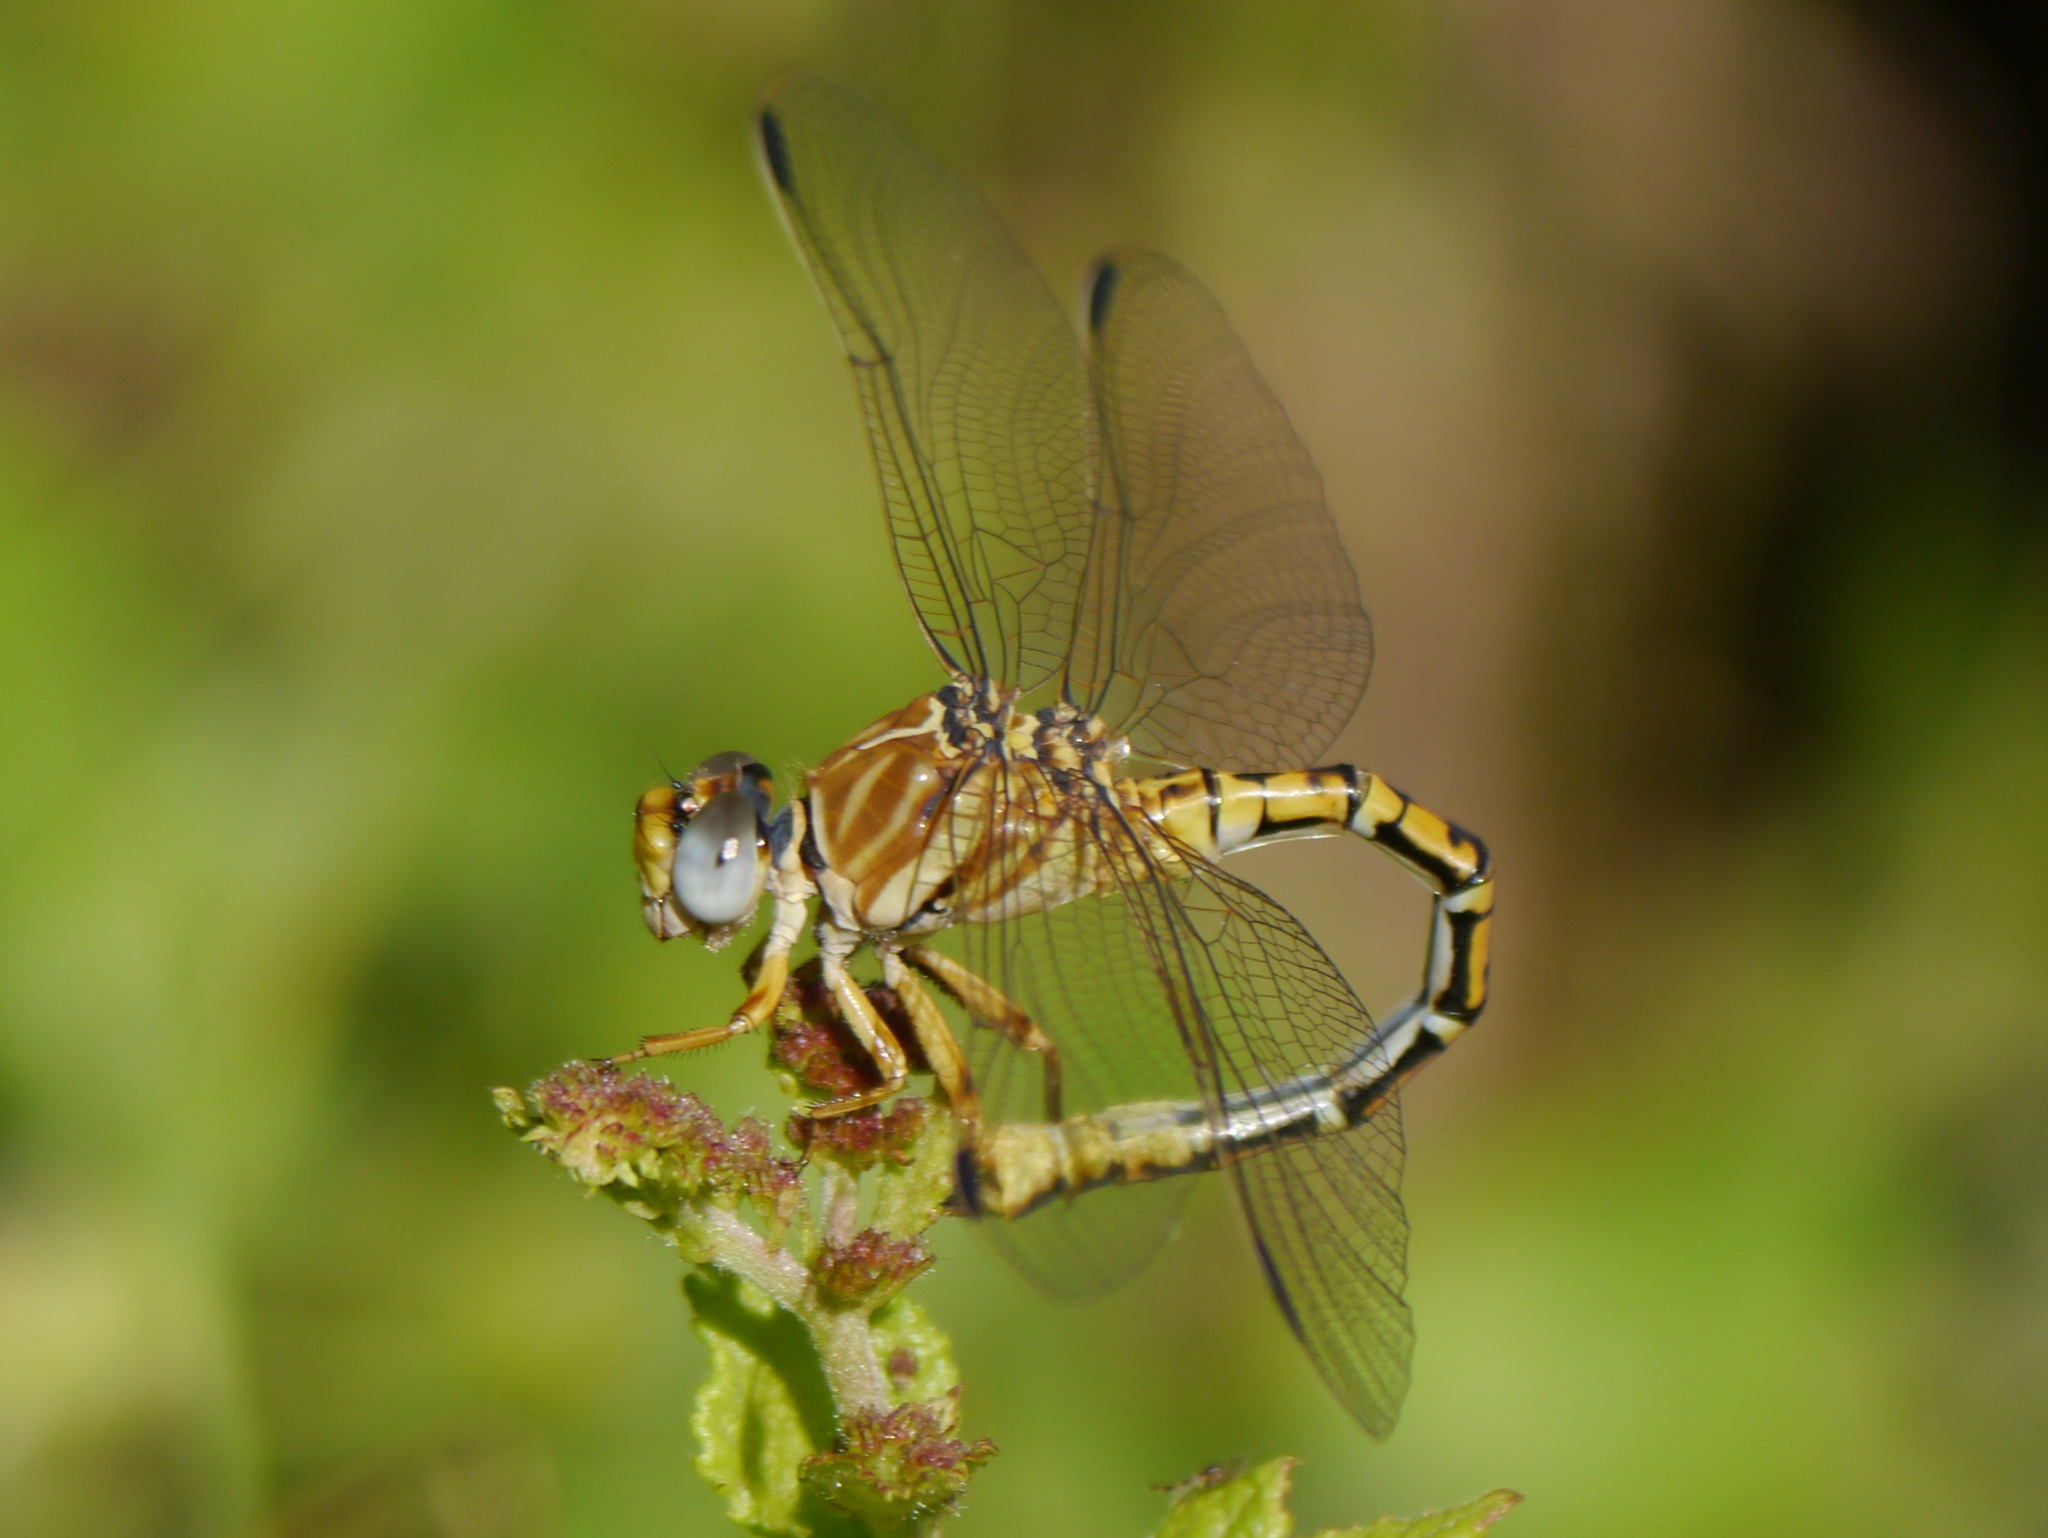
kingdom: Animalia
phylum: Arthropoda
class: Insecta
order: Odonata
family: Gomphidae
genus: Crenigomphus
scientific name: Crenigomphus renei
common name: Western talontail
